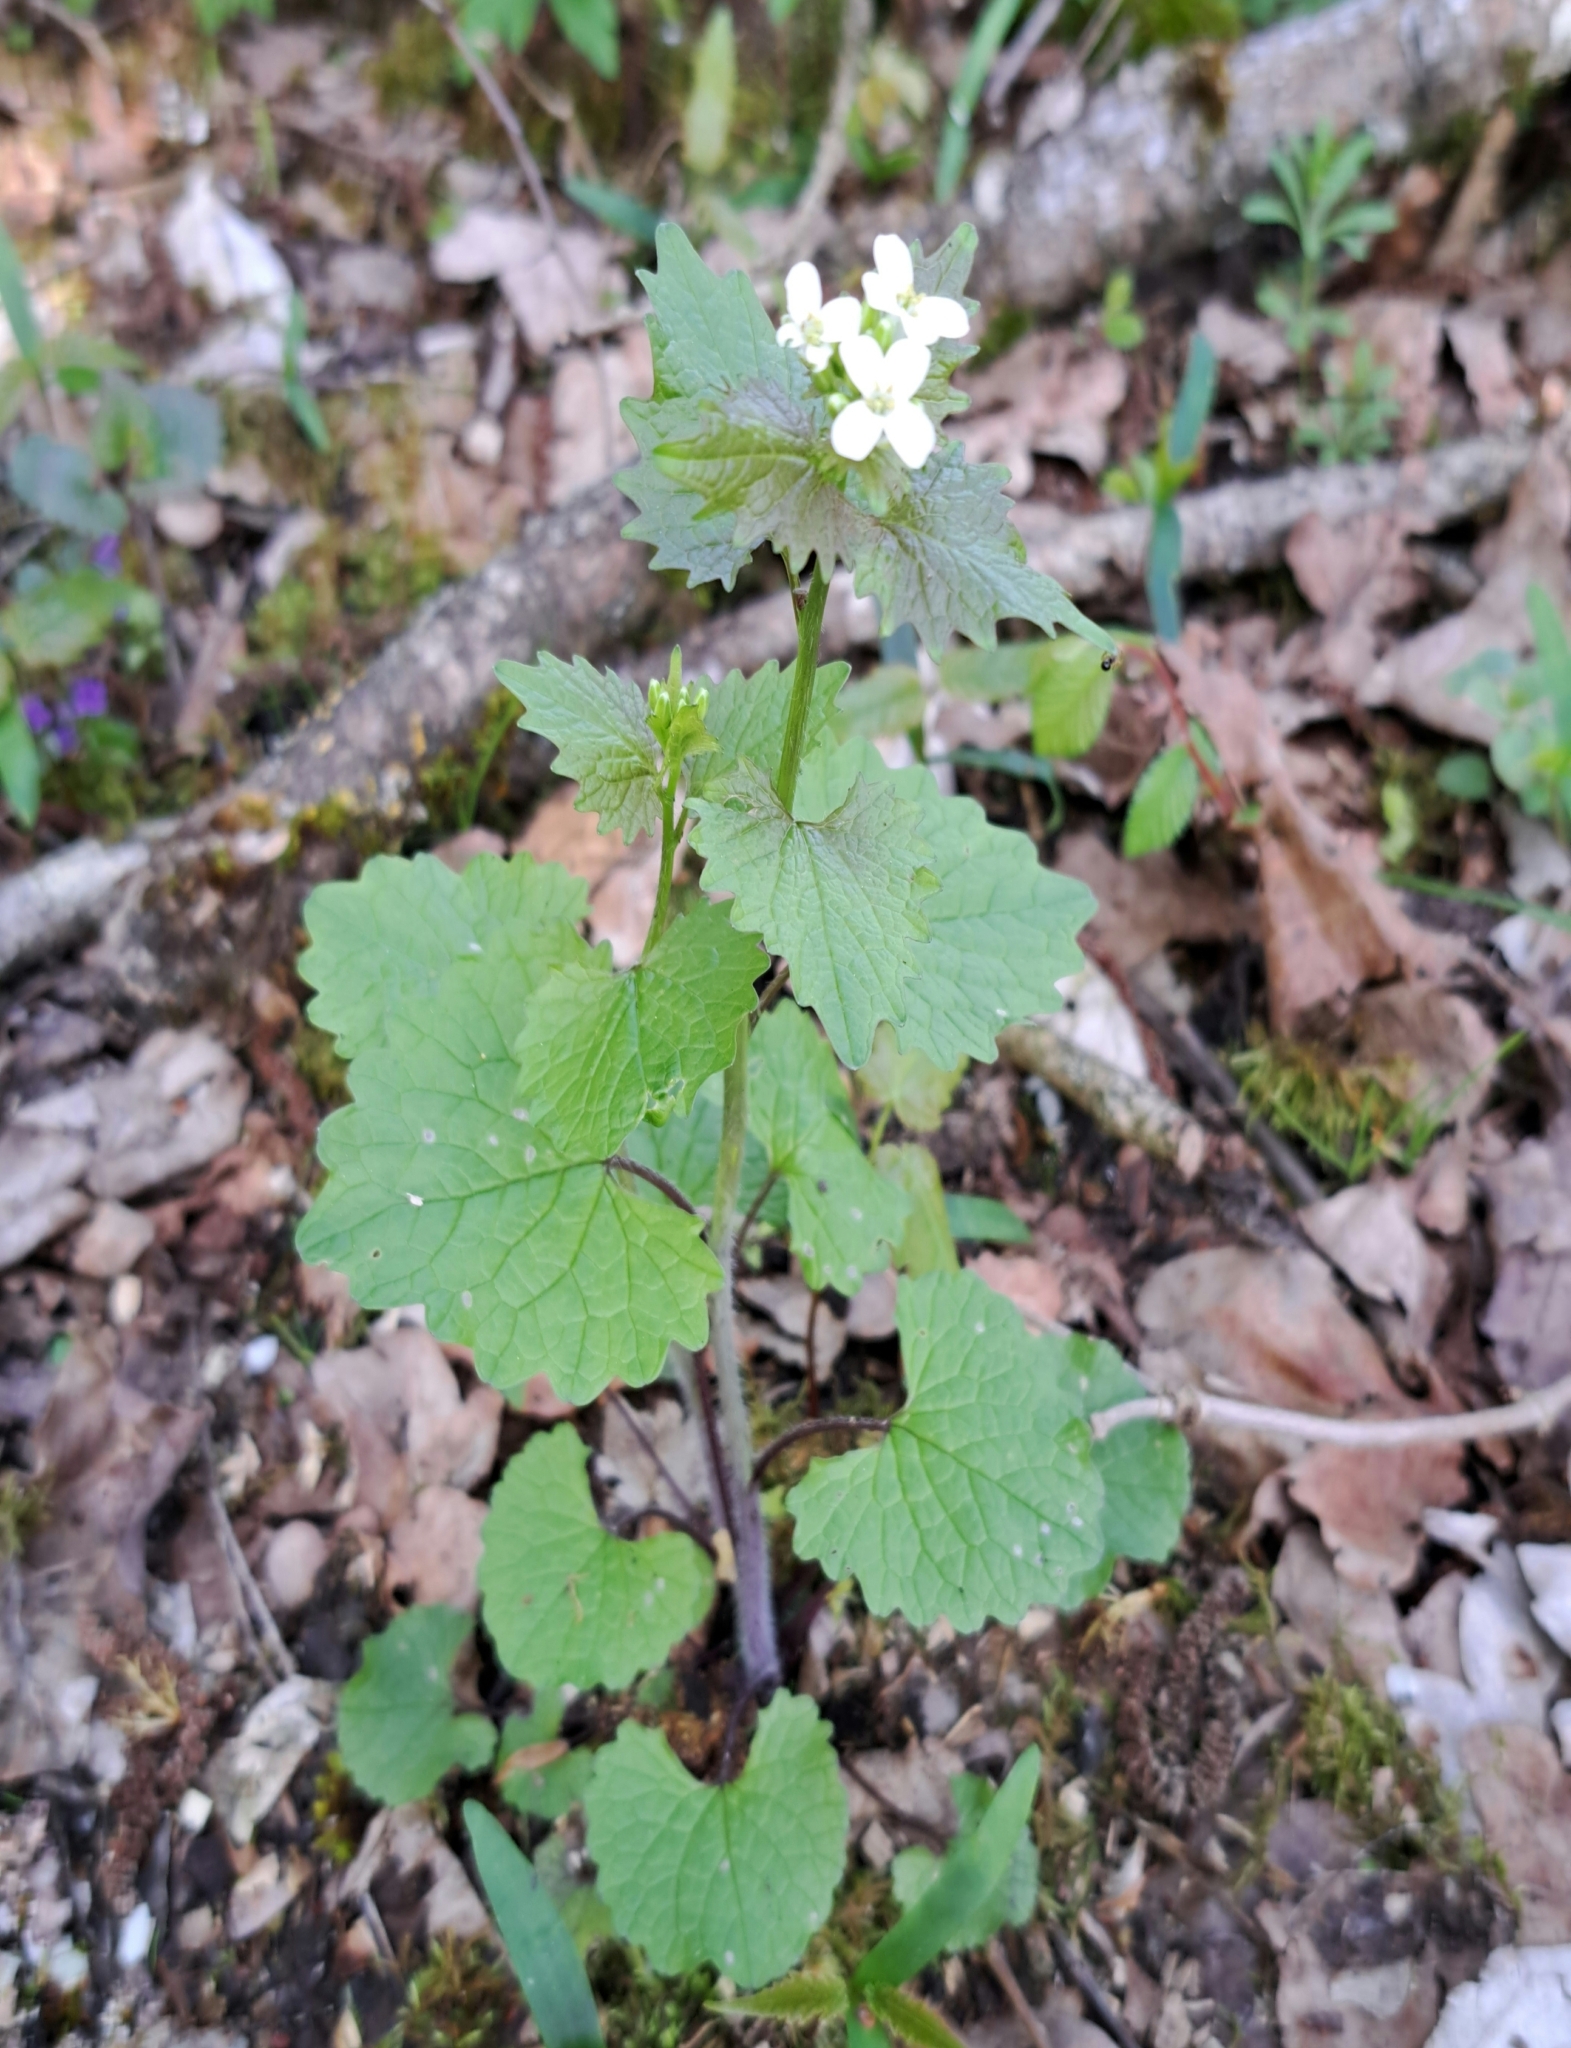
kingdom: Plantae
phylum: Tracheophyta
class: Magnoliopsida
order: Brassicales
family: Brassicaceae
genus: Alliaria
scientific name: Alliaria petiolata
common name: Garlic mustard
